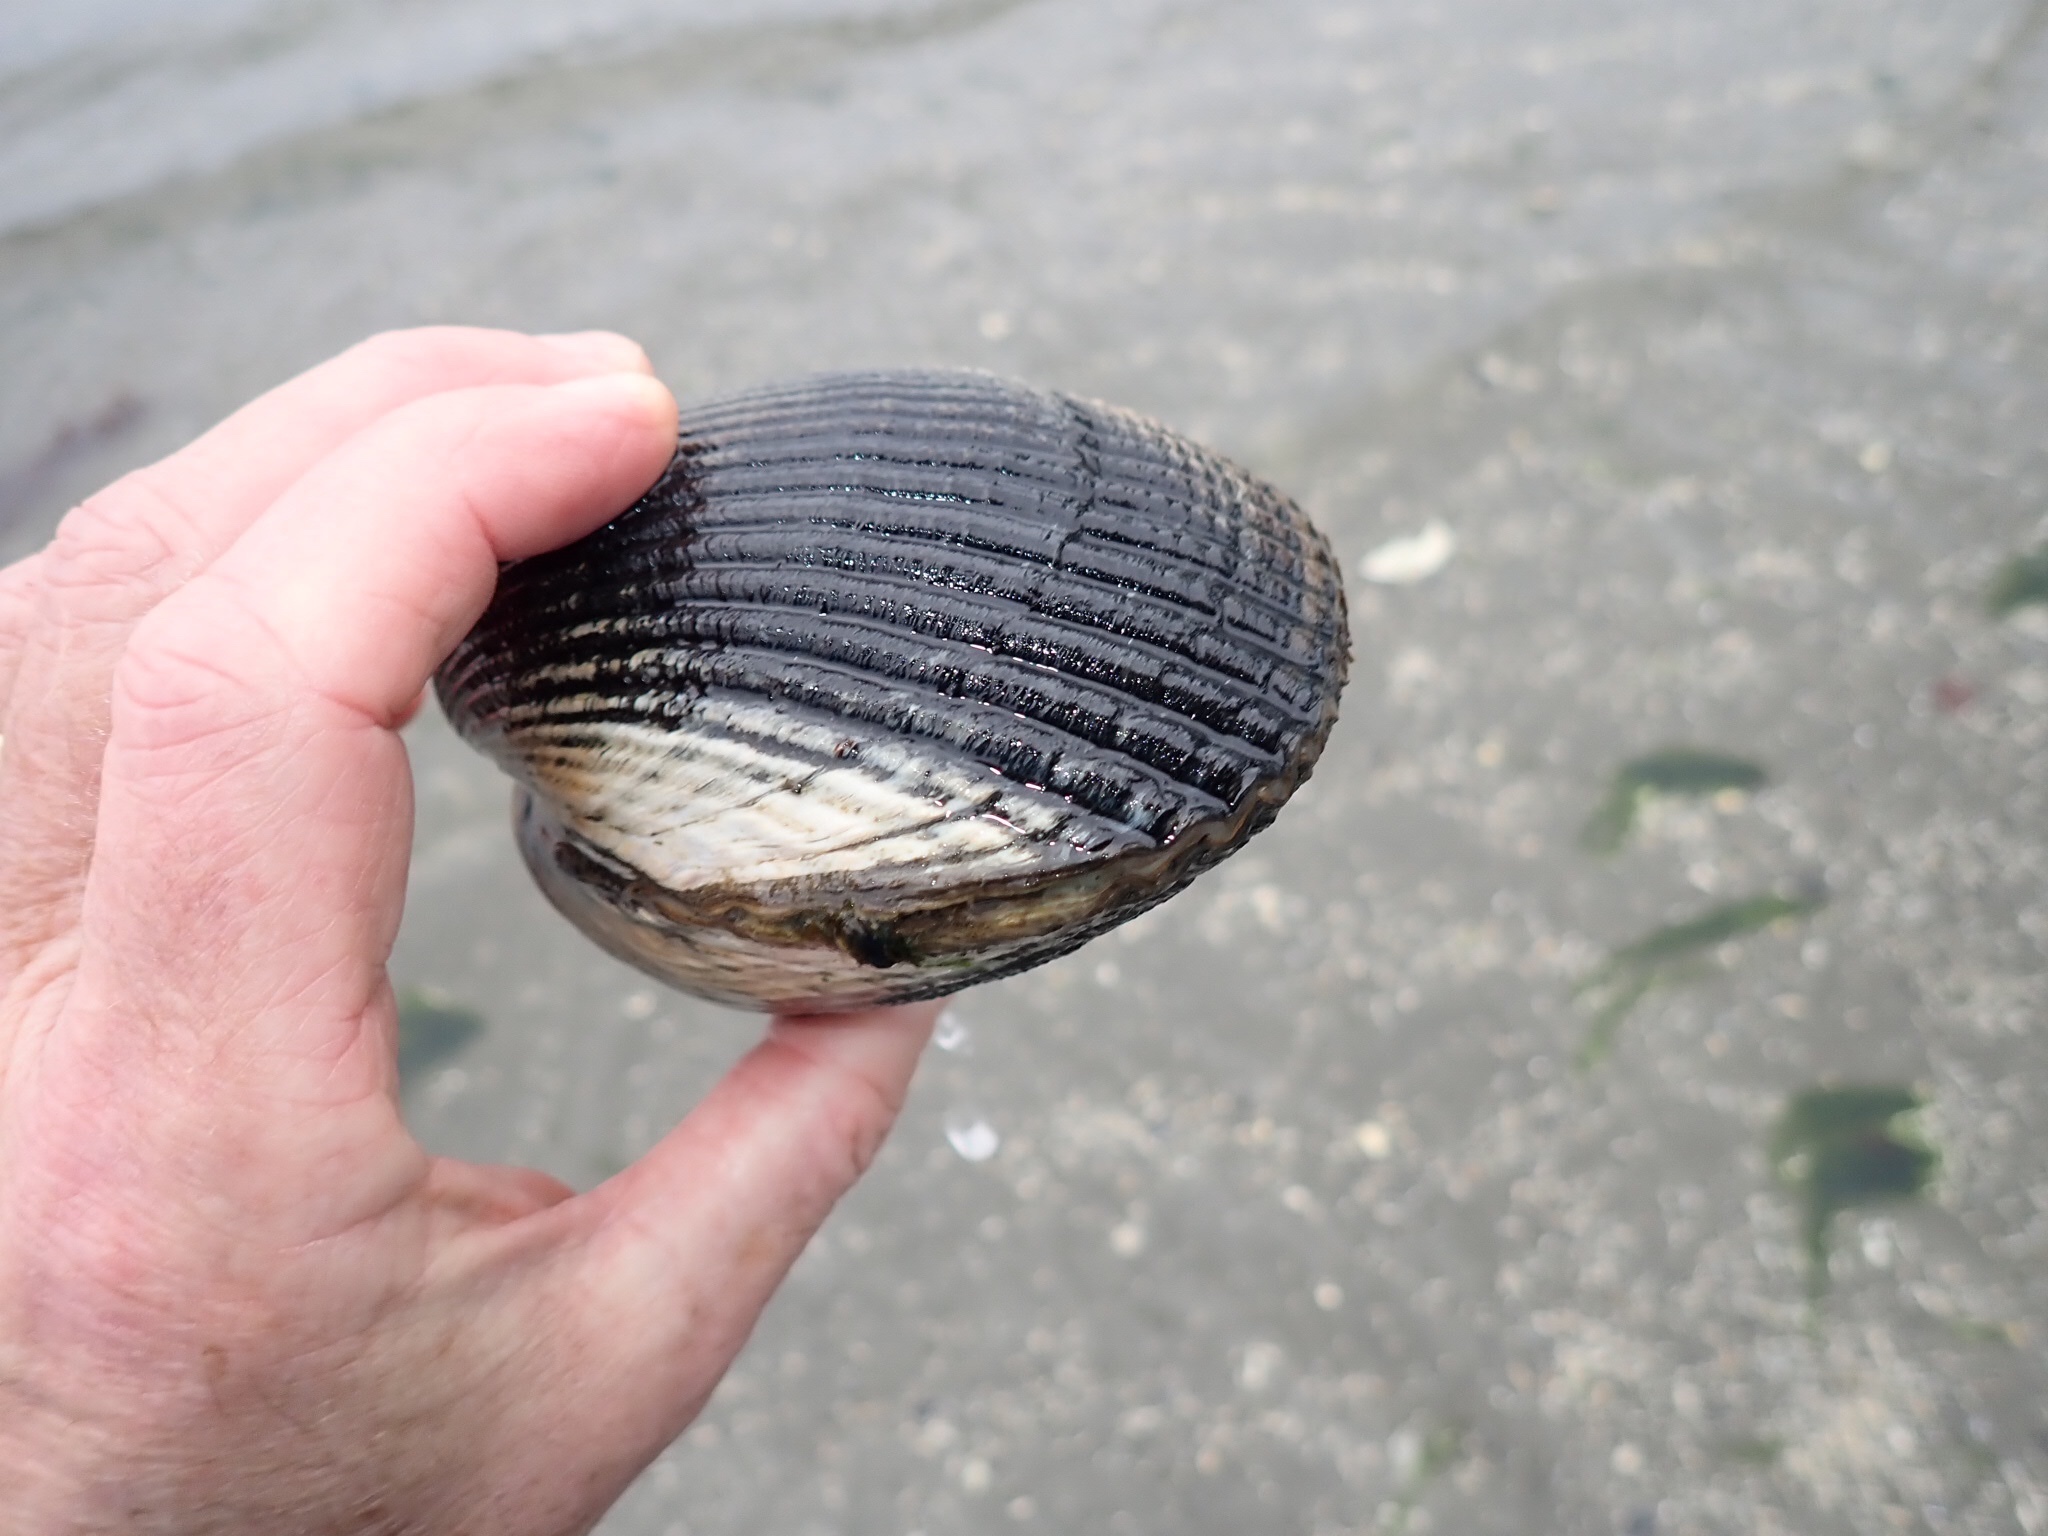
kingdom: Animalia
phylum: Mollusca
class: Bivalvia
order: Cardiida
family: Cardiidae
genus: Clinocardium
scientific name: Clinocardium nuttallii
